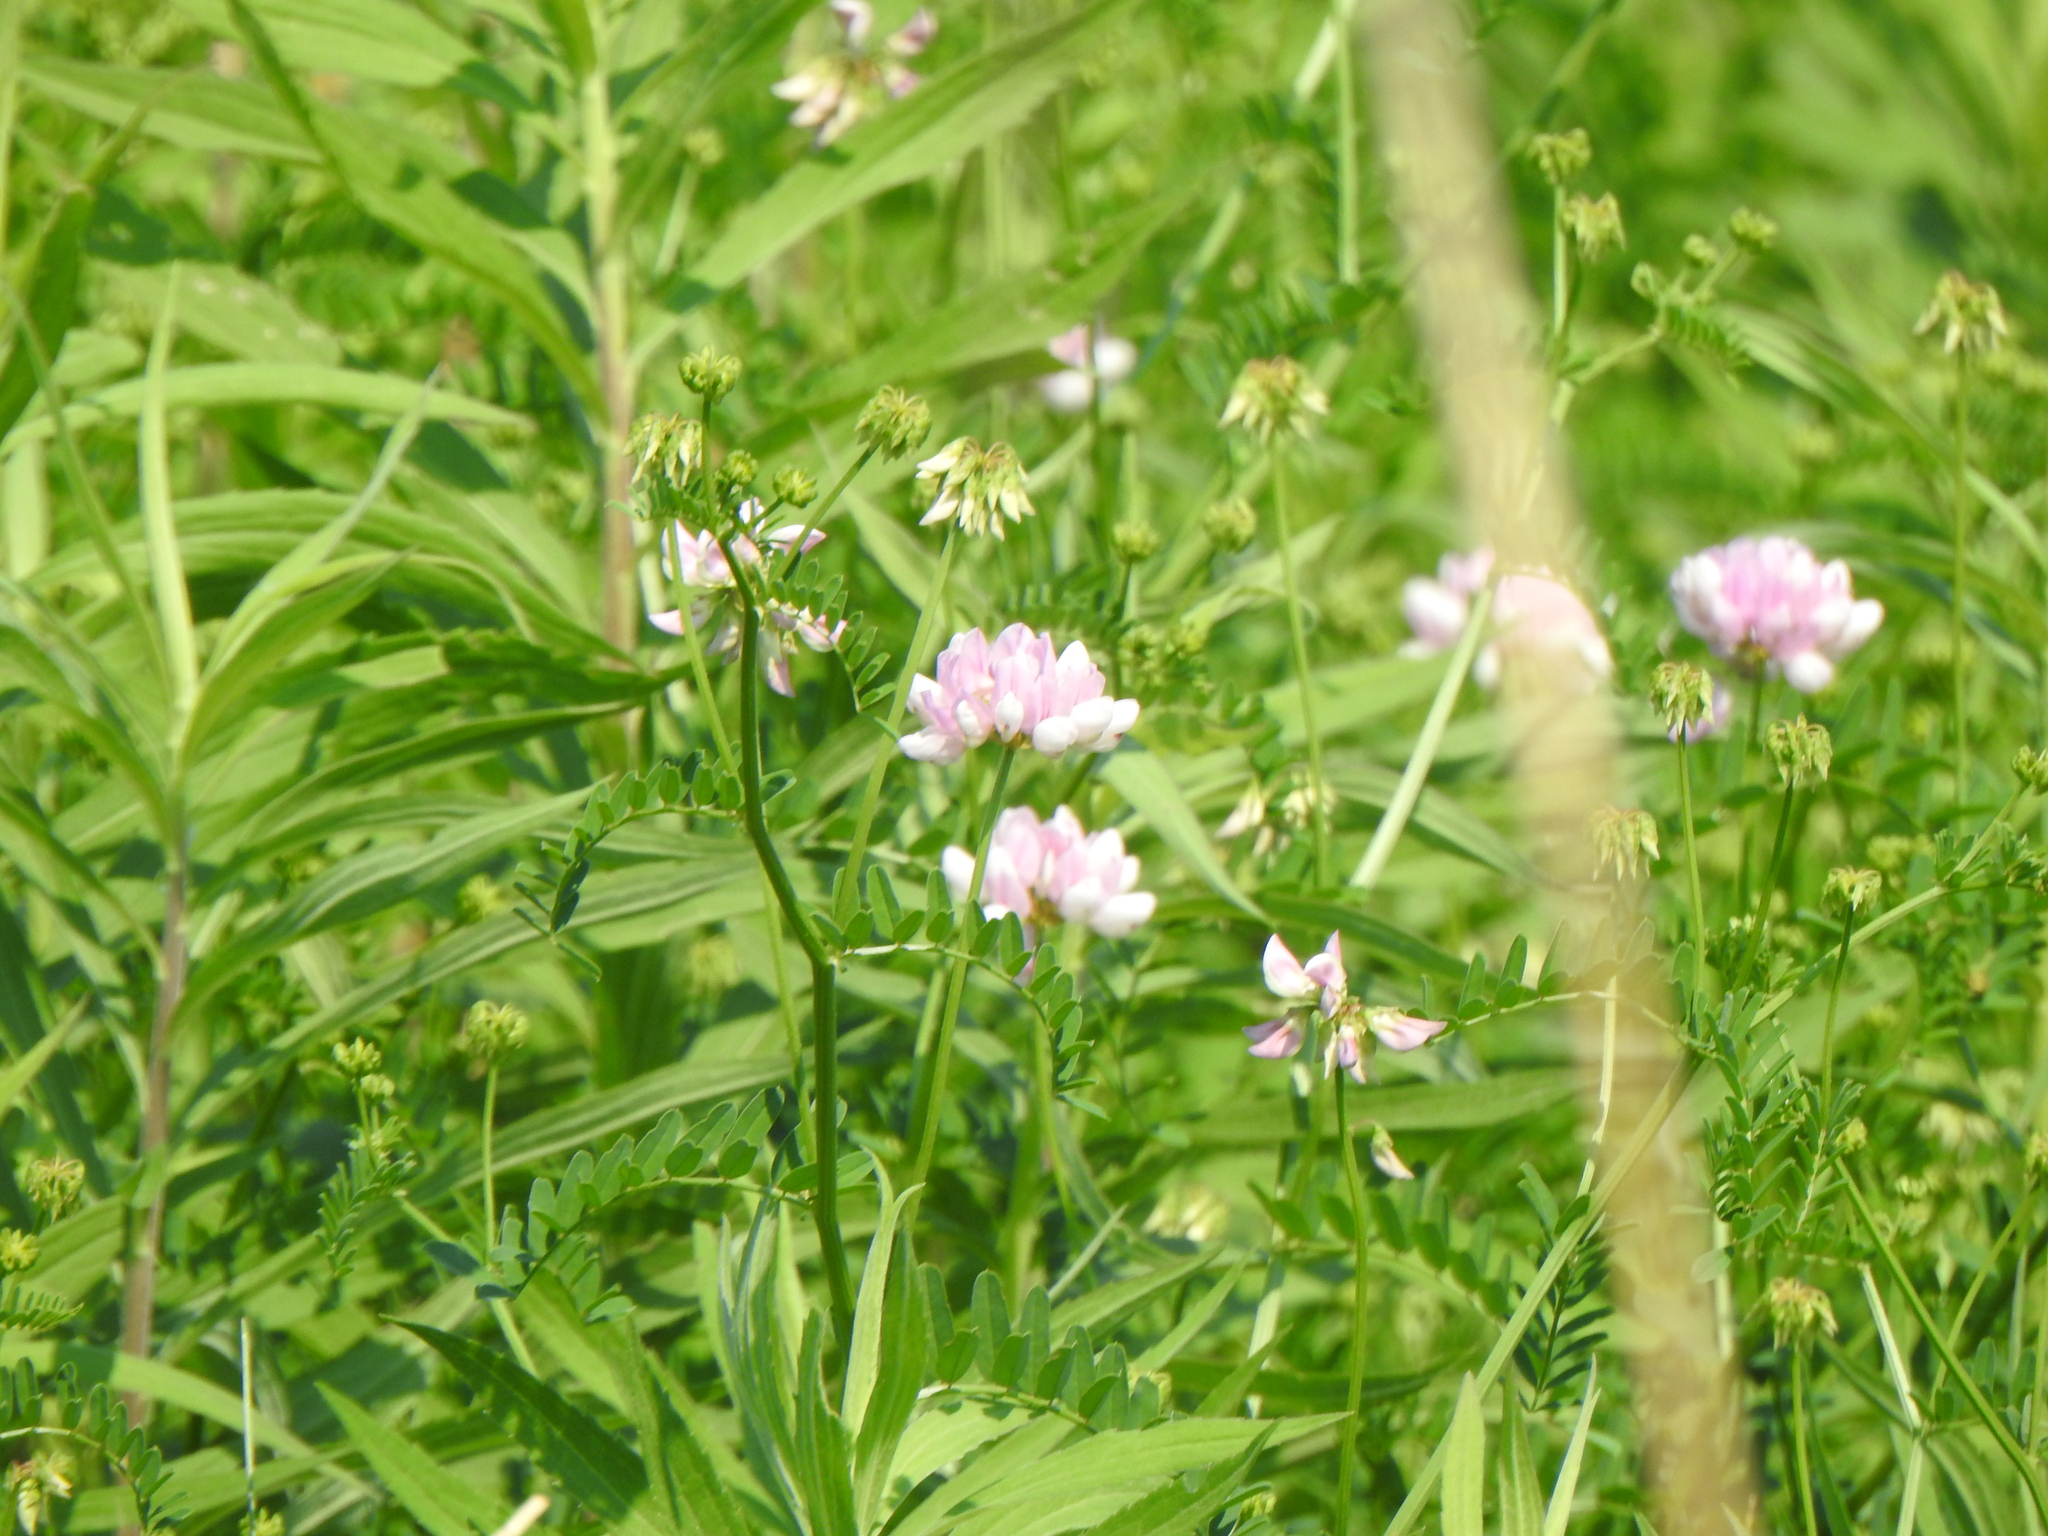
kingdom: Plantae
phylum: Tracheophyta
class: Magnoliopsida
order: Fabales
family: Fabaceae
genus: Coronilla
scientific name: Coronilla varia
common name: Crownvetch
